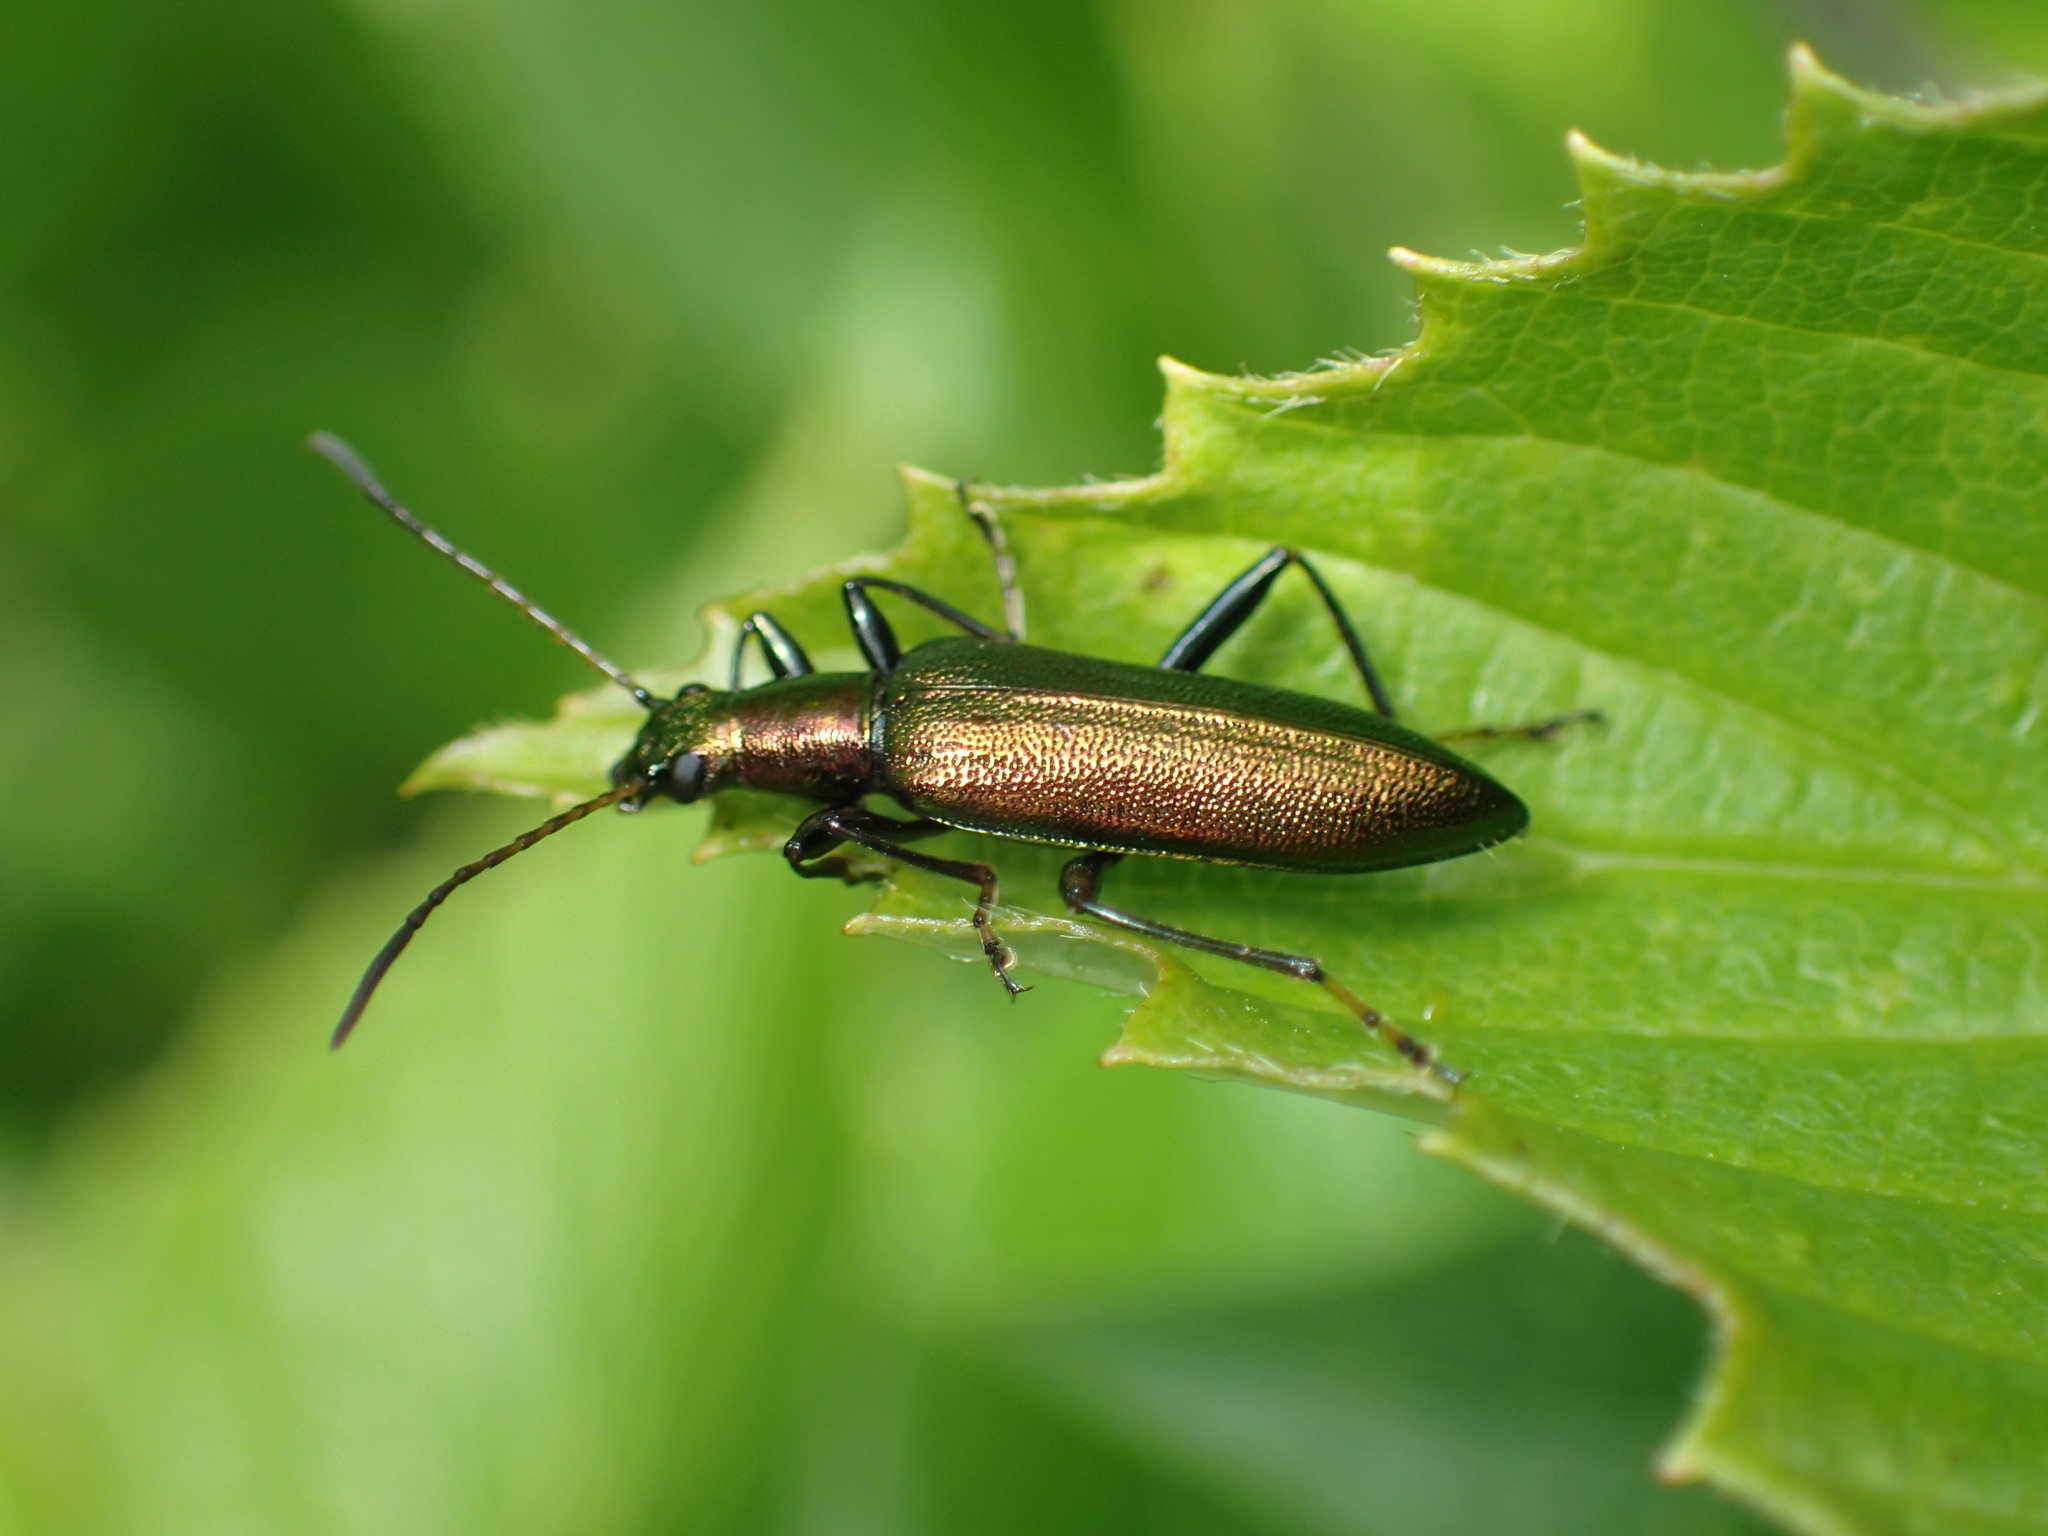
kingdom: Animalia
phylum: Arthropoda
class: Insecta
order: Coleoptera
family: Tenebrionidae
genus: Arthromacra
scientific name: Arthromacra aenea
